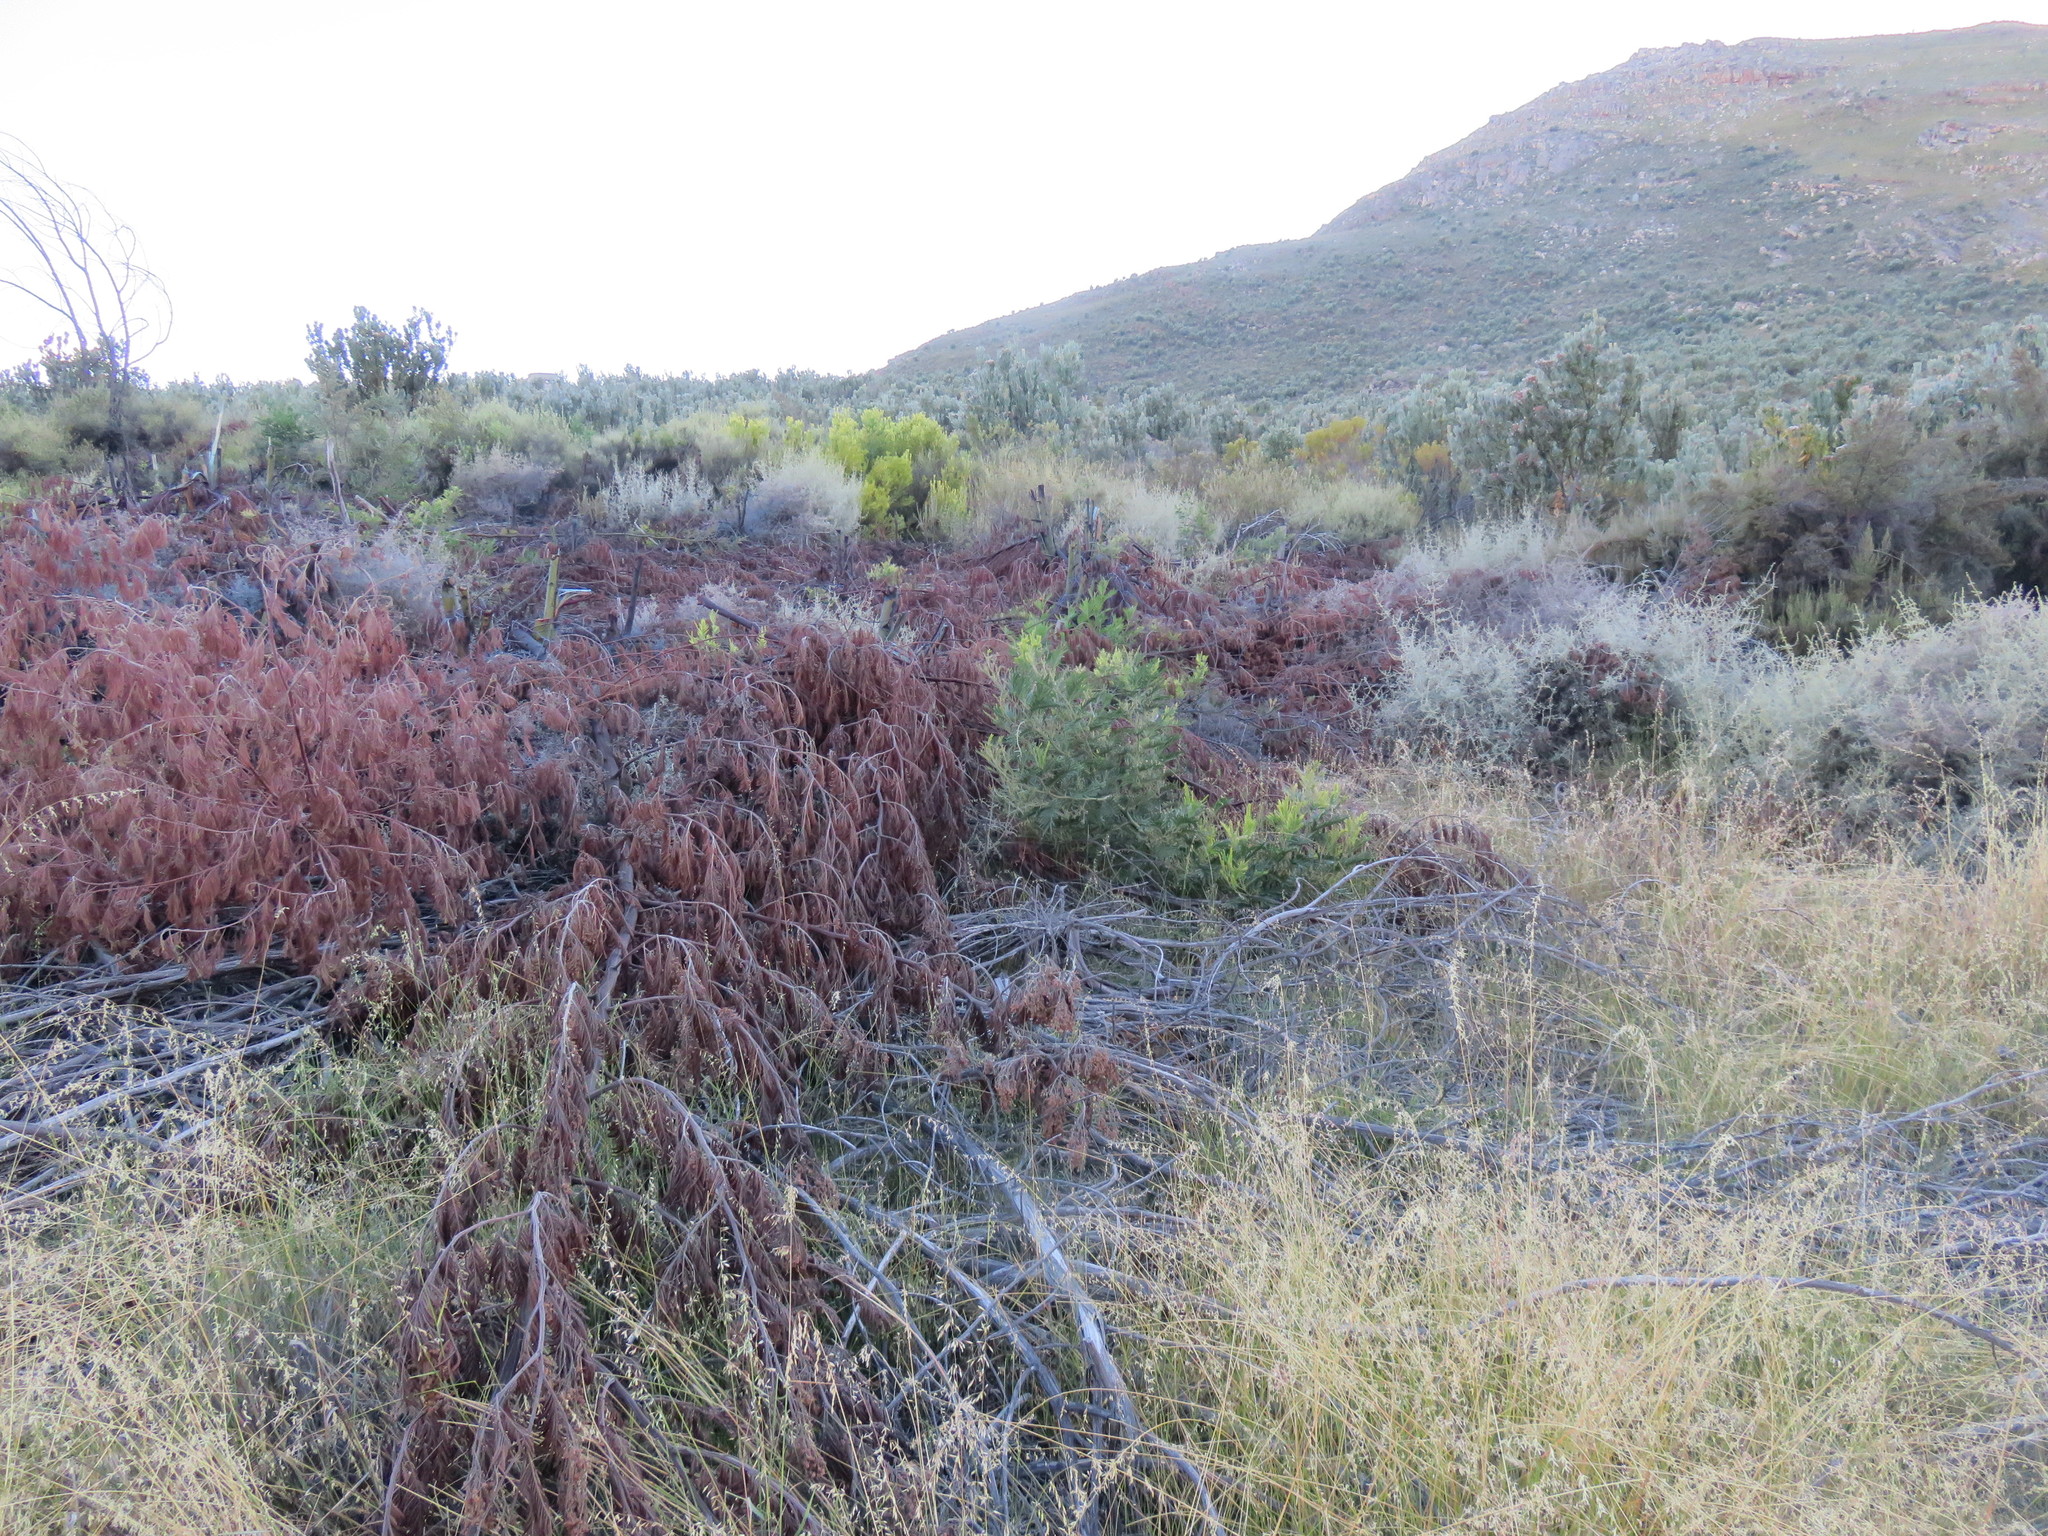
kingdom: Plantae
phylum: Tracheophyta
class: Magnoliopsida
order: Fabales
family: Fabaceae
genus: Acacia
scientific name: Acacia mearnsii
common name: Black wattle
